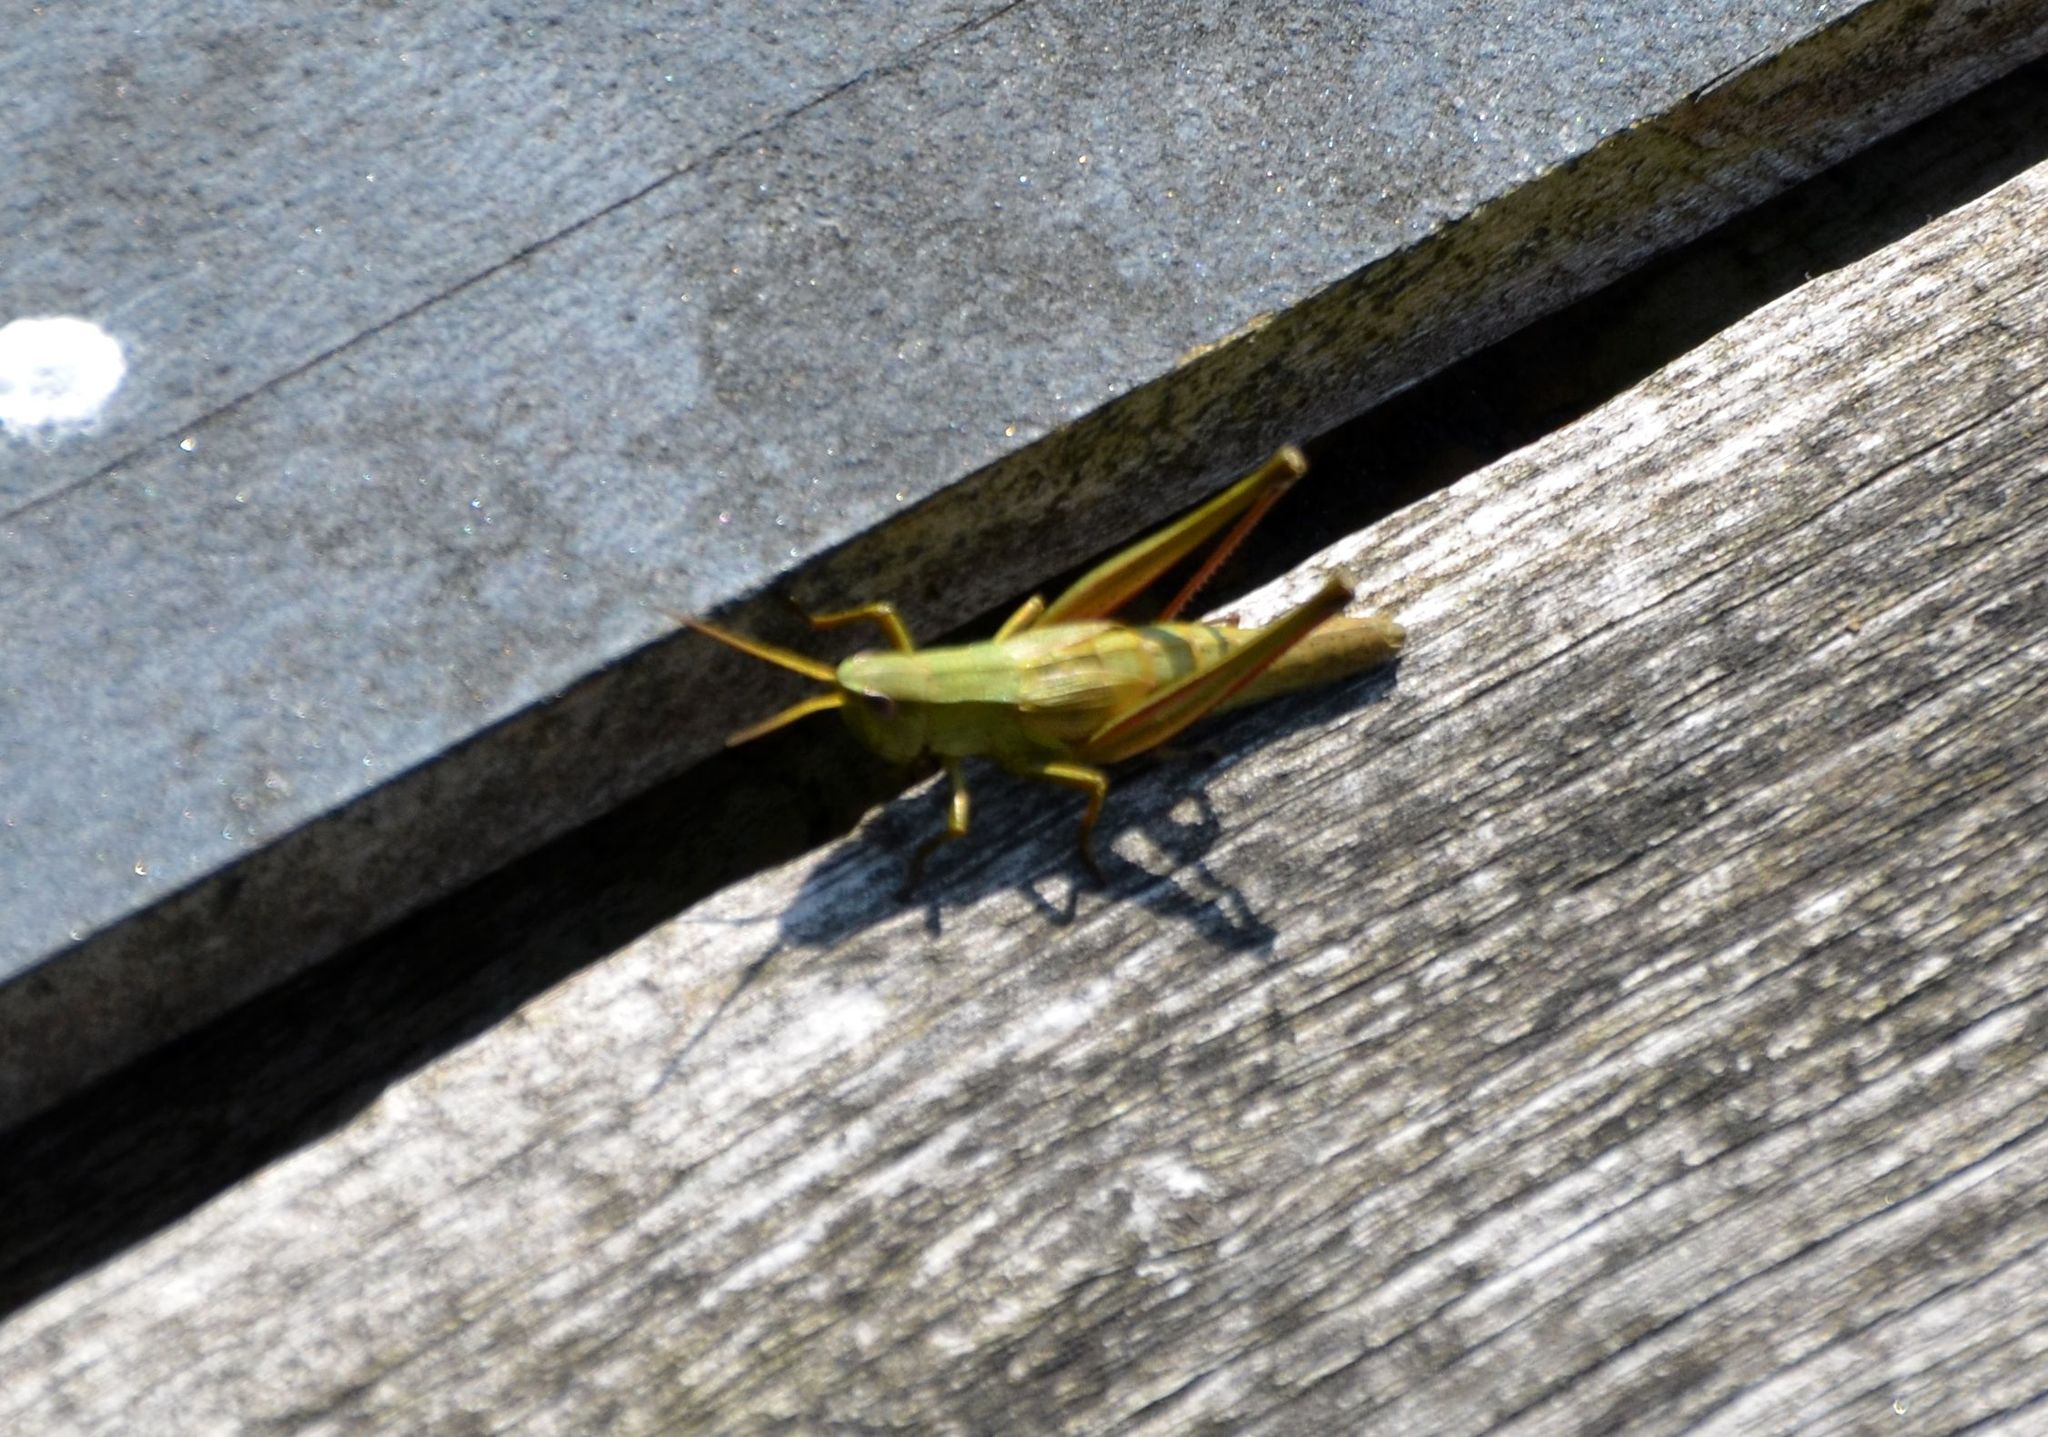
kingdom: Animalia
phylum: Arthropoda
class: Insecta
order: Orthoptera
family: Acrididae
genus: Chrysochraon
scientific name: Chrysochraon dispar
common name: Large gold grasshopper
